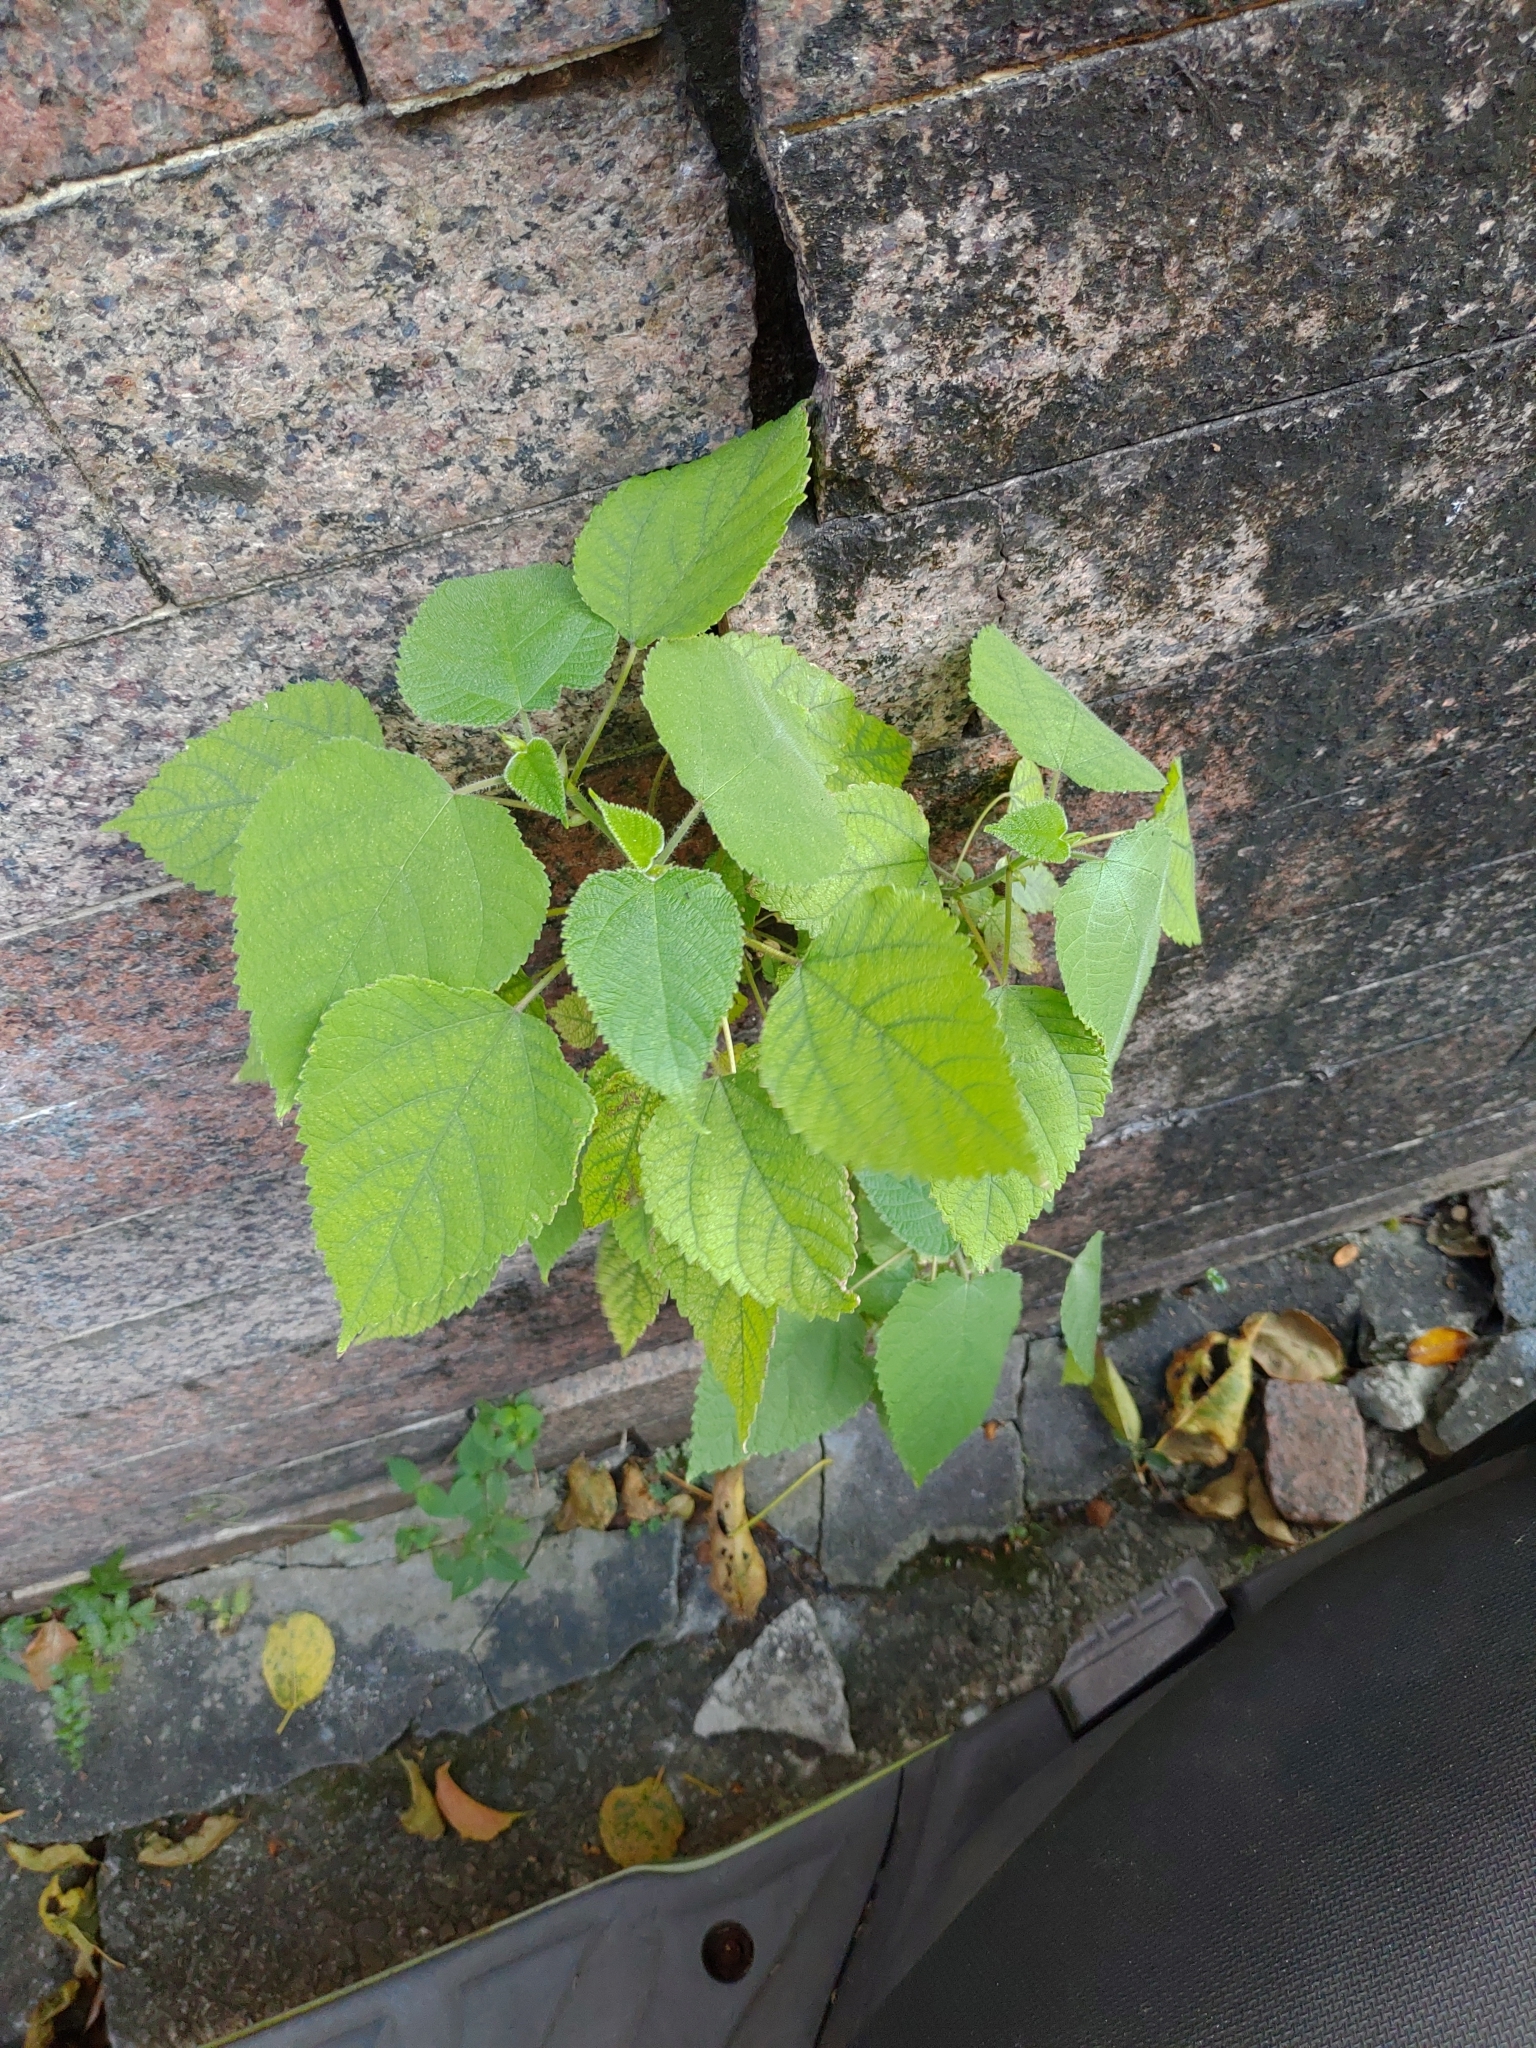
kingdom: Plantae
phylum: Tracheophyta
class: Magnoliopsida
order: Rosales
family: Moraceae
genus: Broussonetia
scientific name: Broussonetia papyrifera
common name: Paper mulberry
